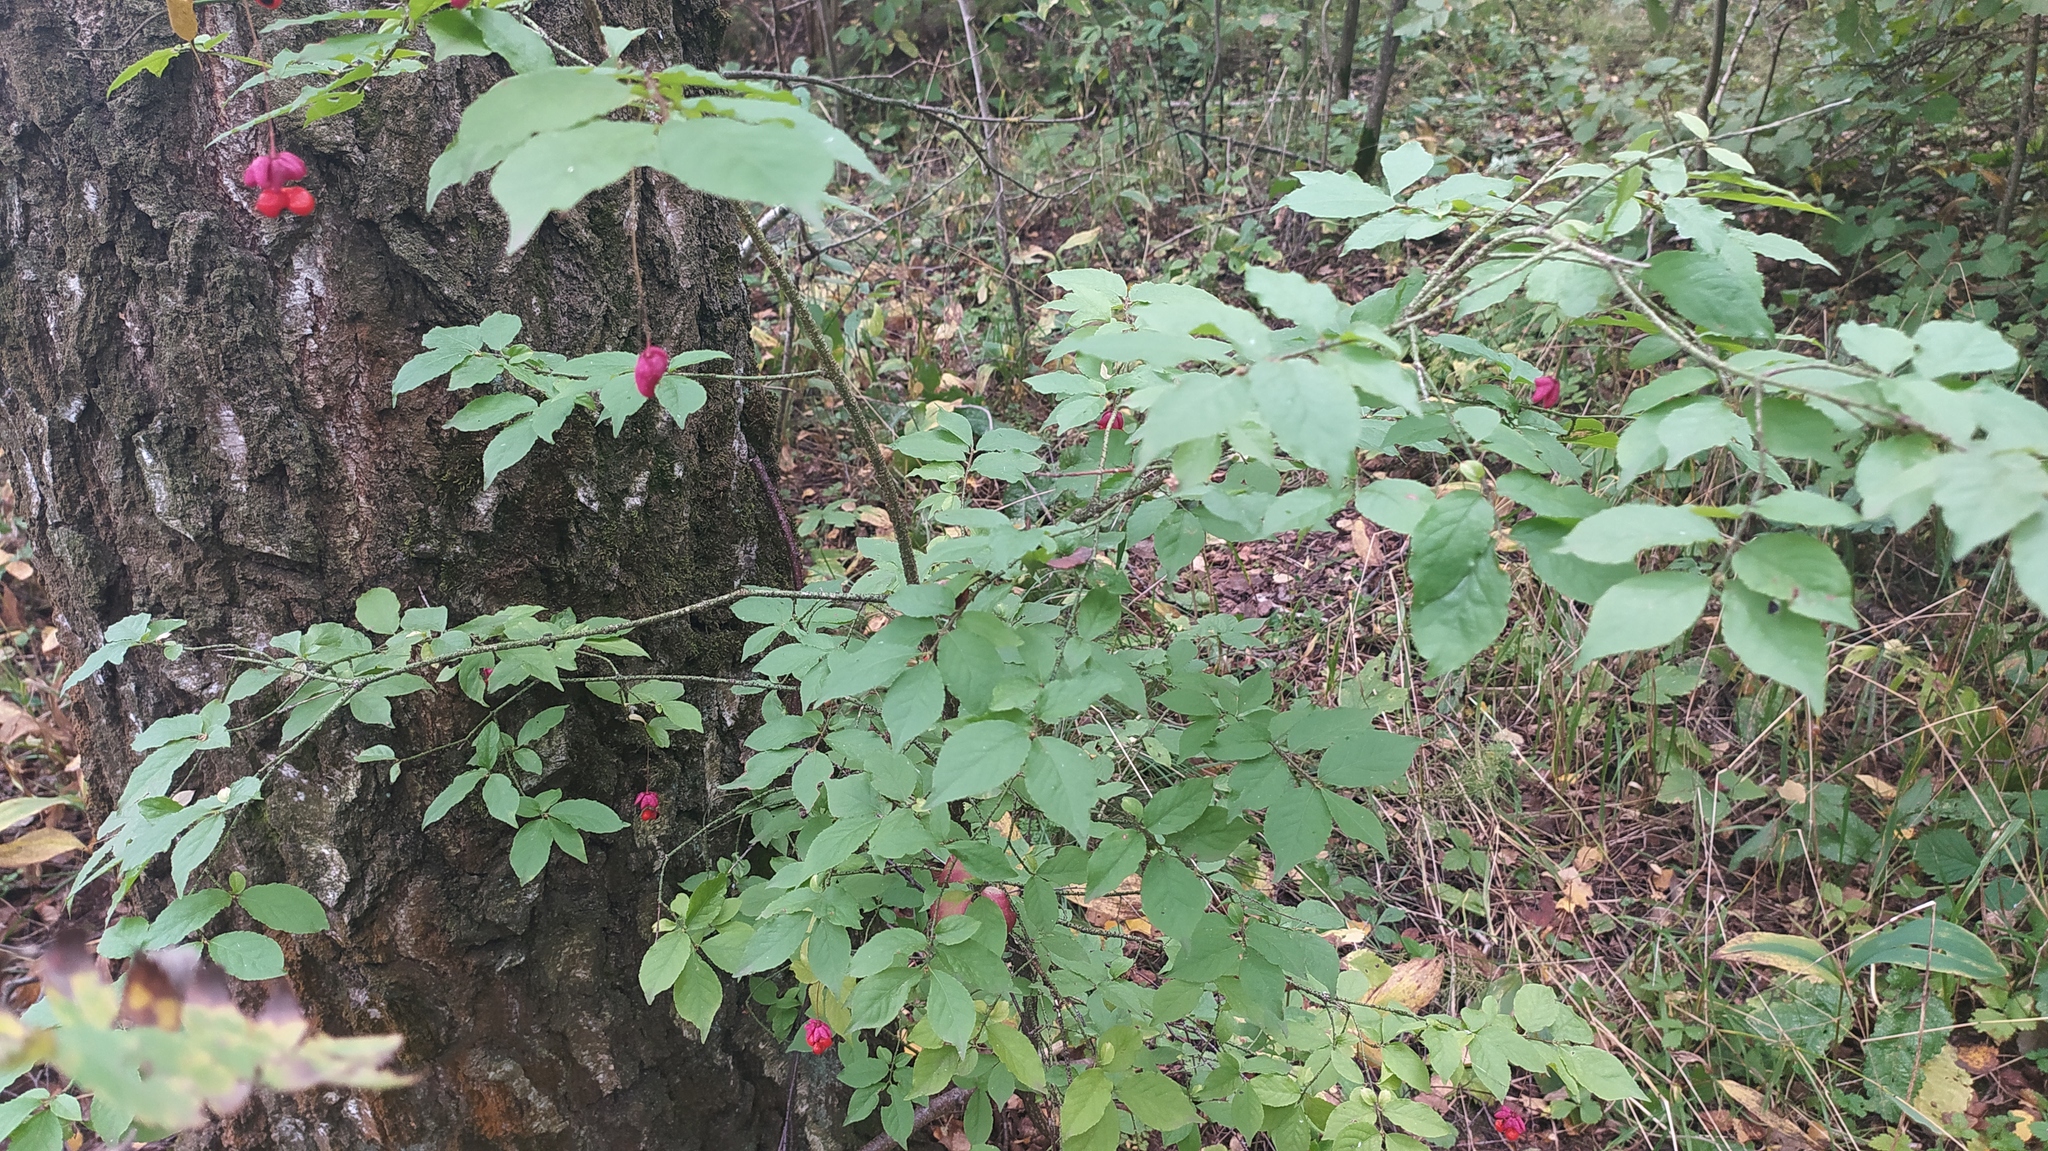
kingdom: Plantae
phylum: Tracheophyta
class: Magnoliopsida
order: Celastrales
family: Celastraceae
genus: Euonymus
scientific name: Euonymus verrucosus
